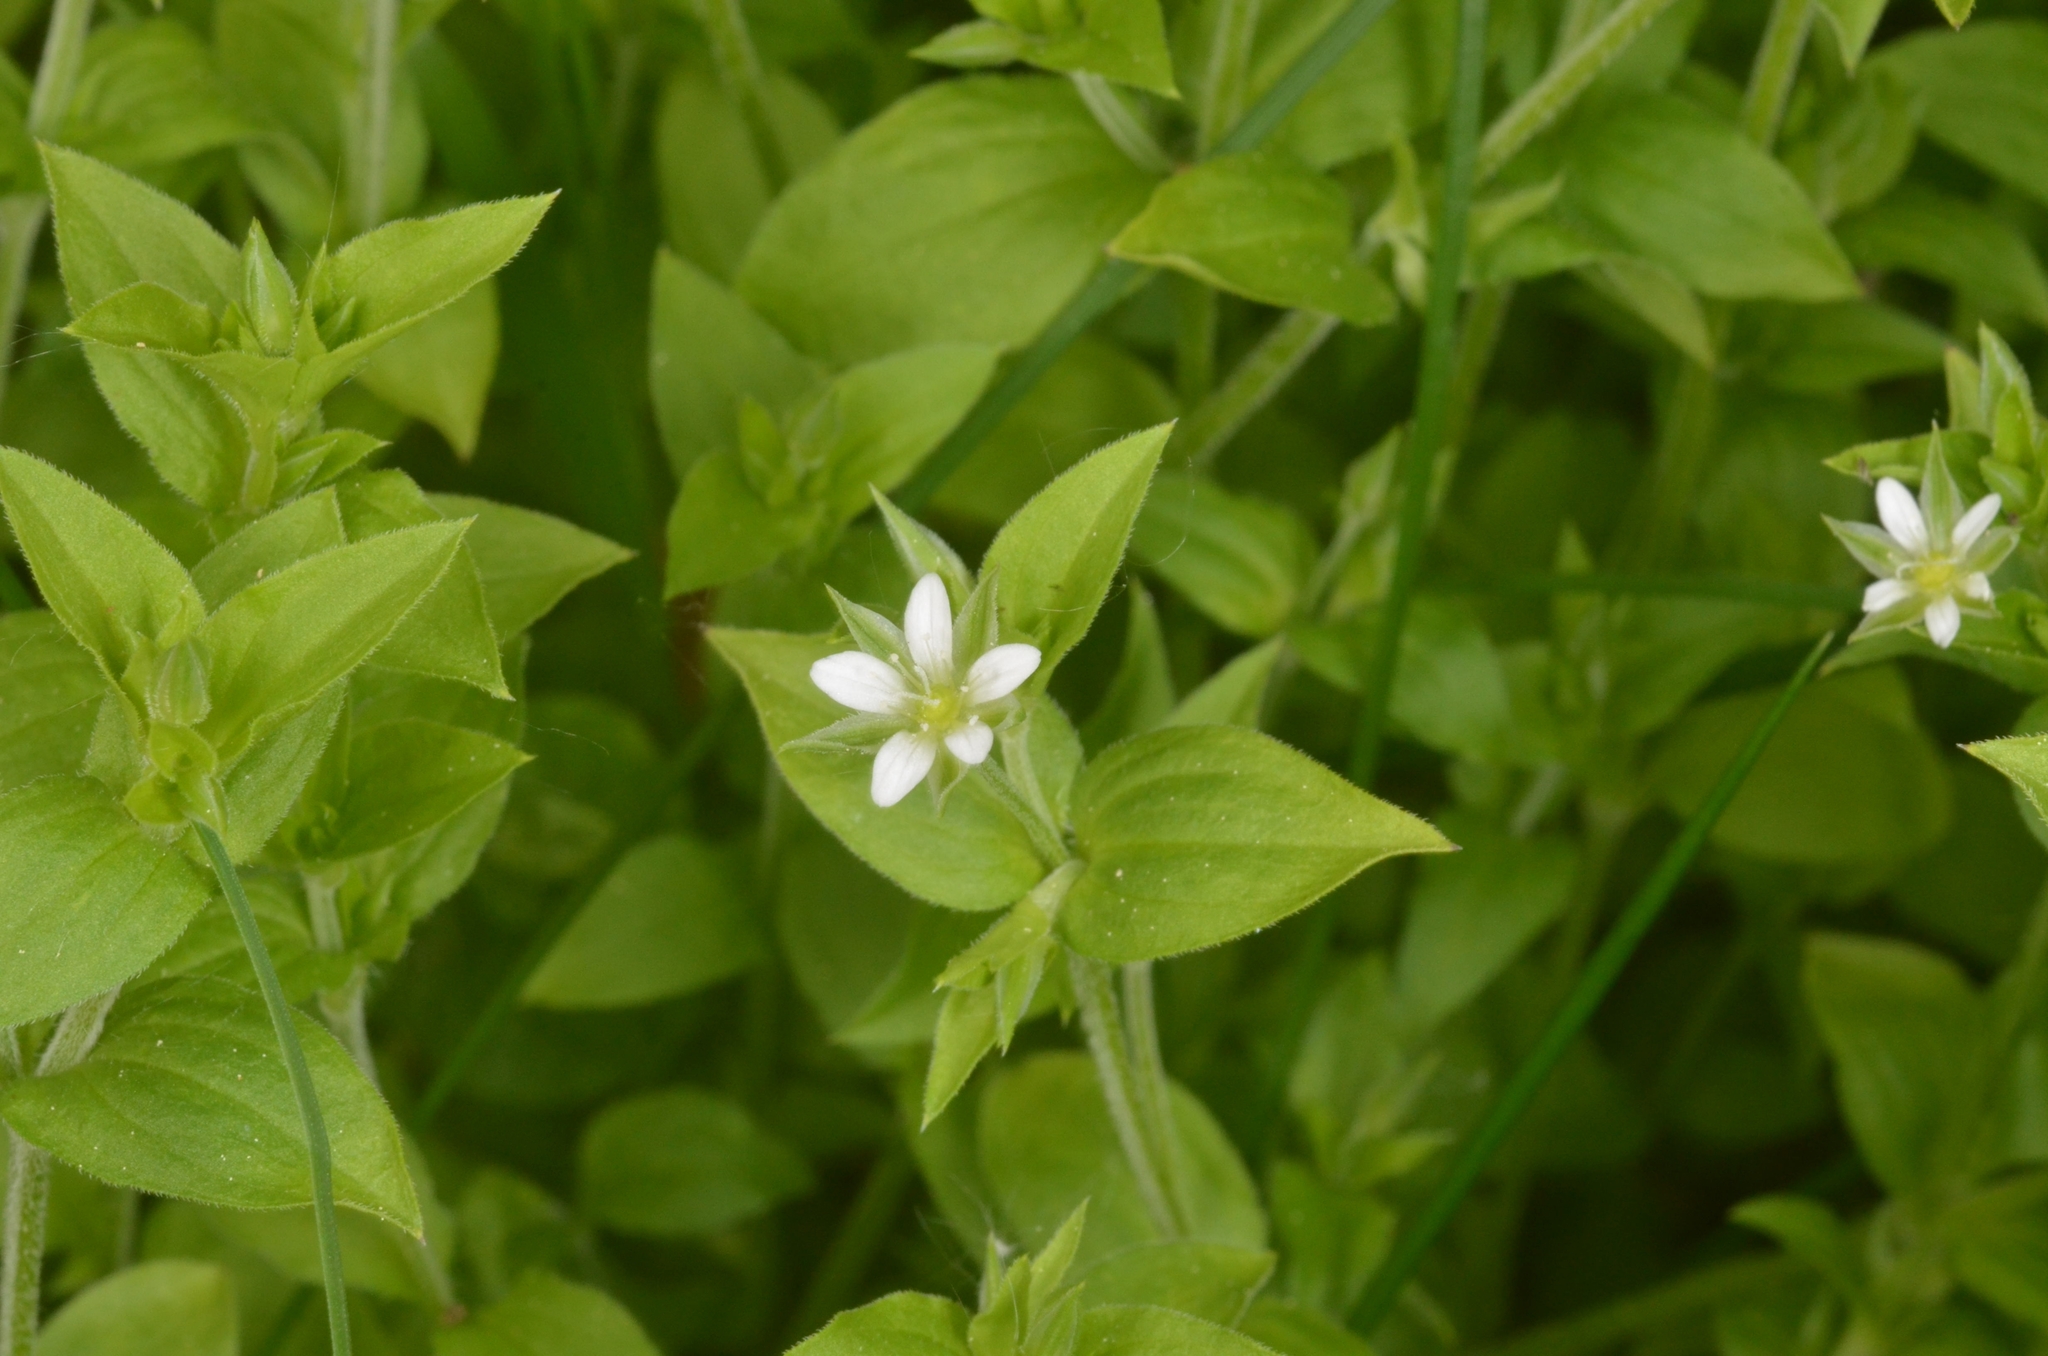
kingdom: Plantae
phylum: Tracheophyta
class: Magnoliopsida
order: Caryophyllales
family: Caryophyllaceae
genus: Moehringia
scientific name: Moehringia trinervia
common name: Three-nerved sandwort
